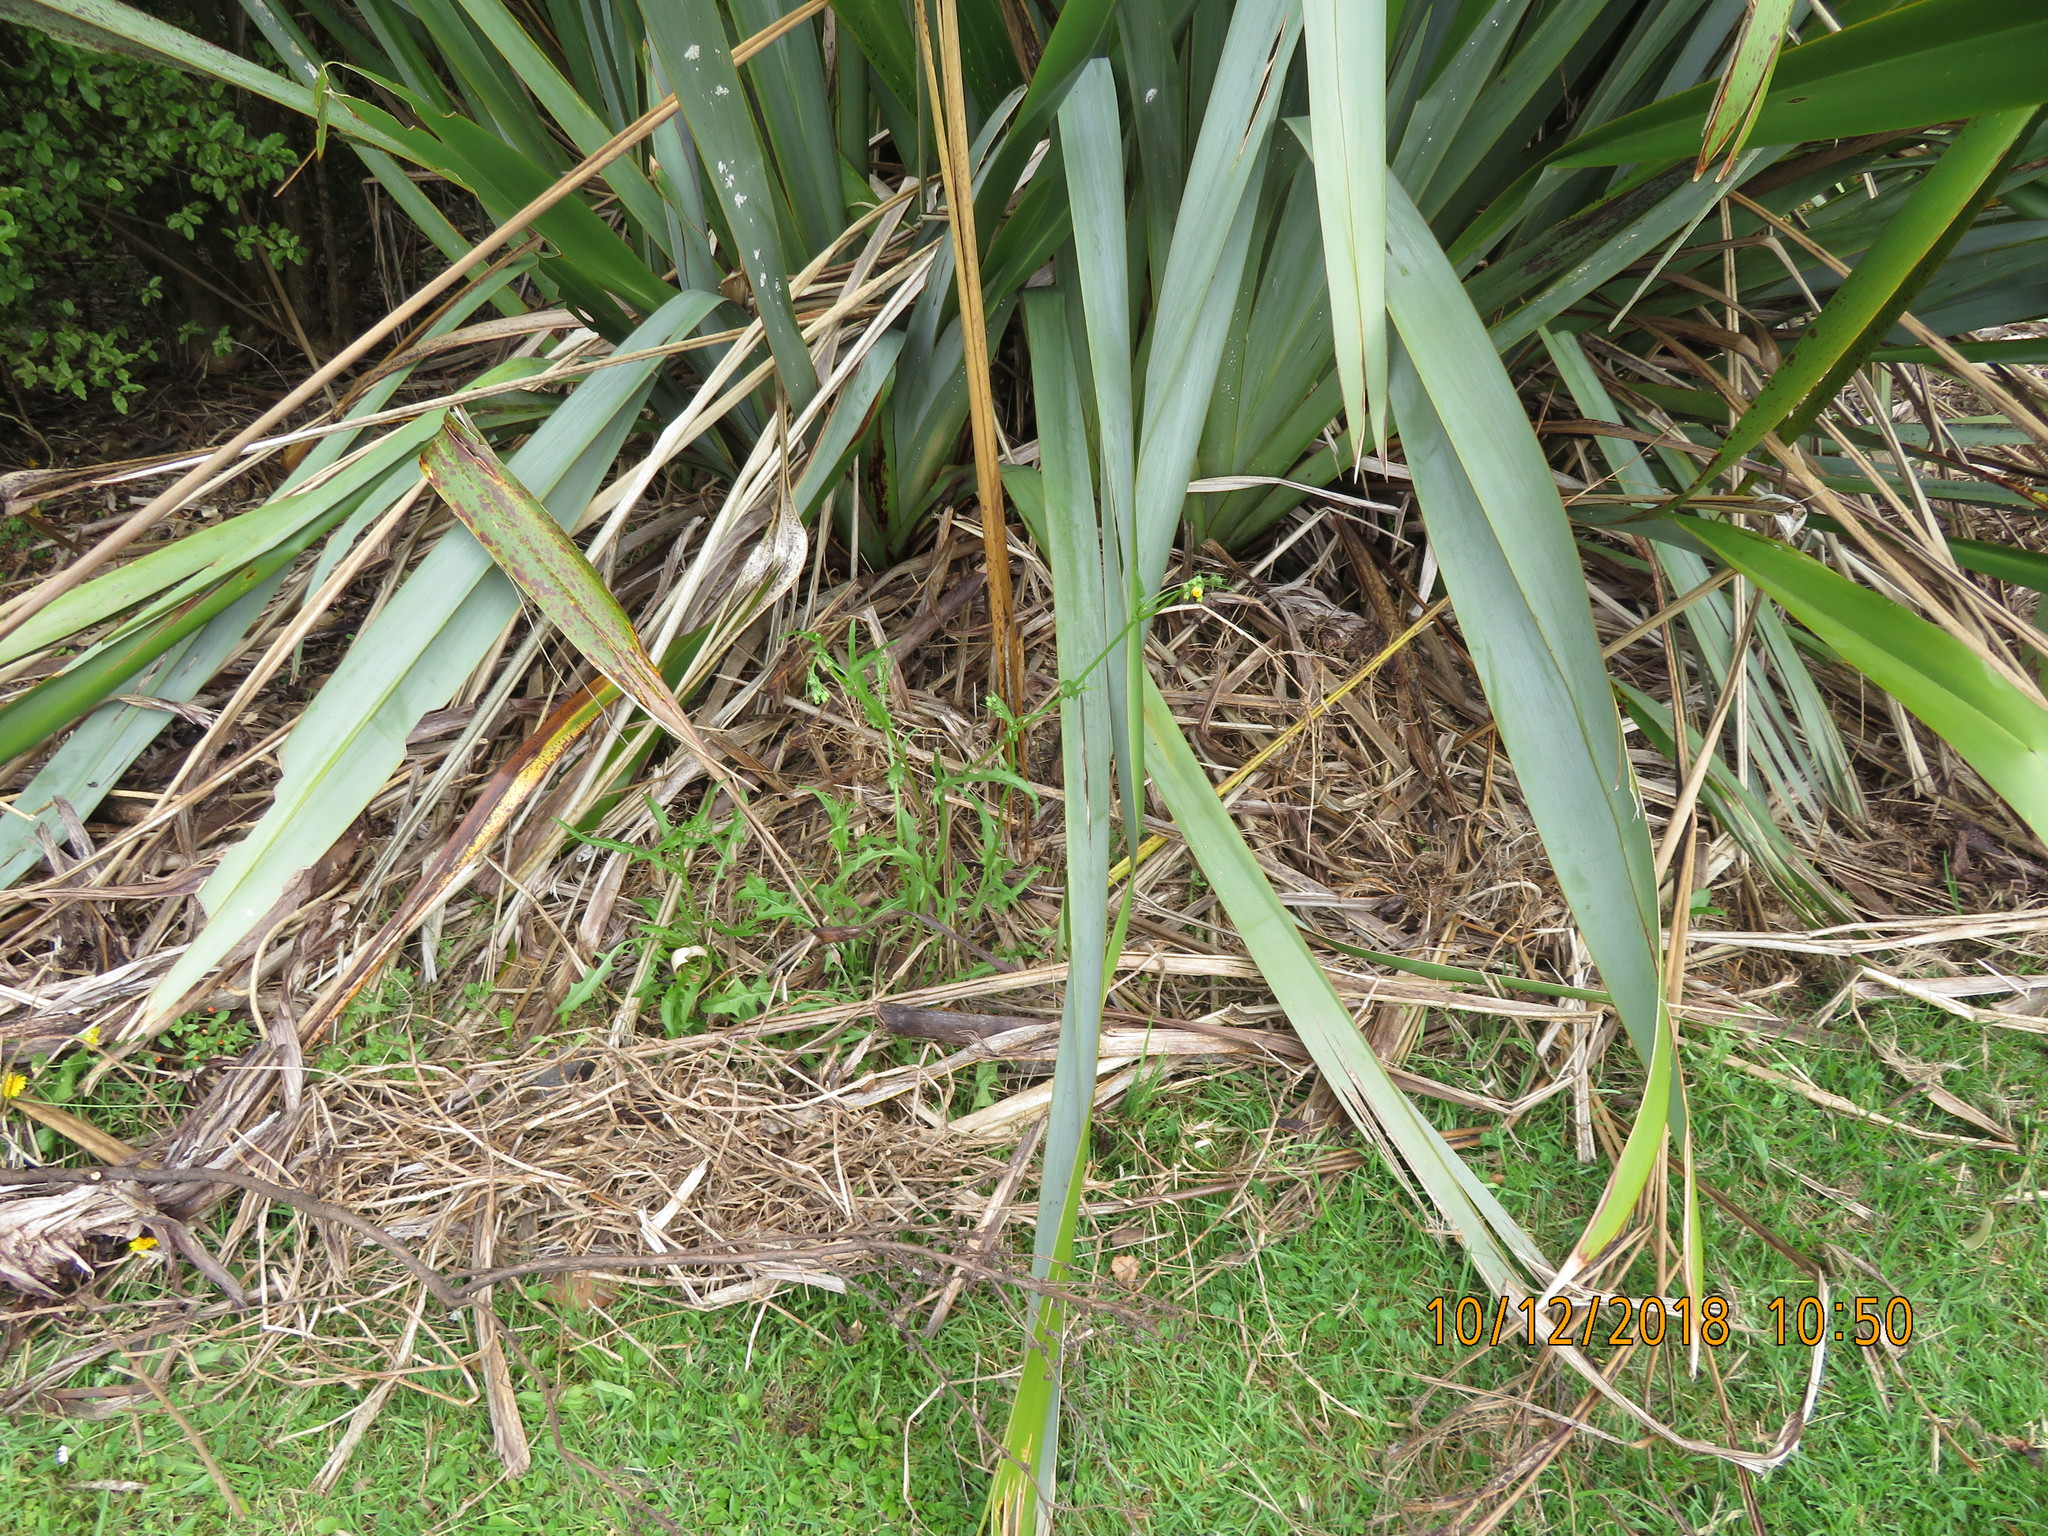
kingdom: Plantae
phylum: Tracheophyta
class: Magnoliopsida
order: Asterales
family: Asteraceae
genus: Crepis
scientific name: Crepis capillaris
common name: Smooth hawksbeard
